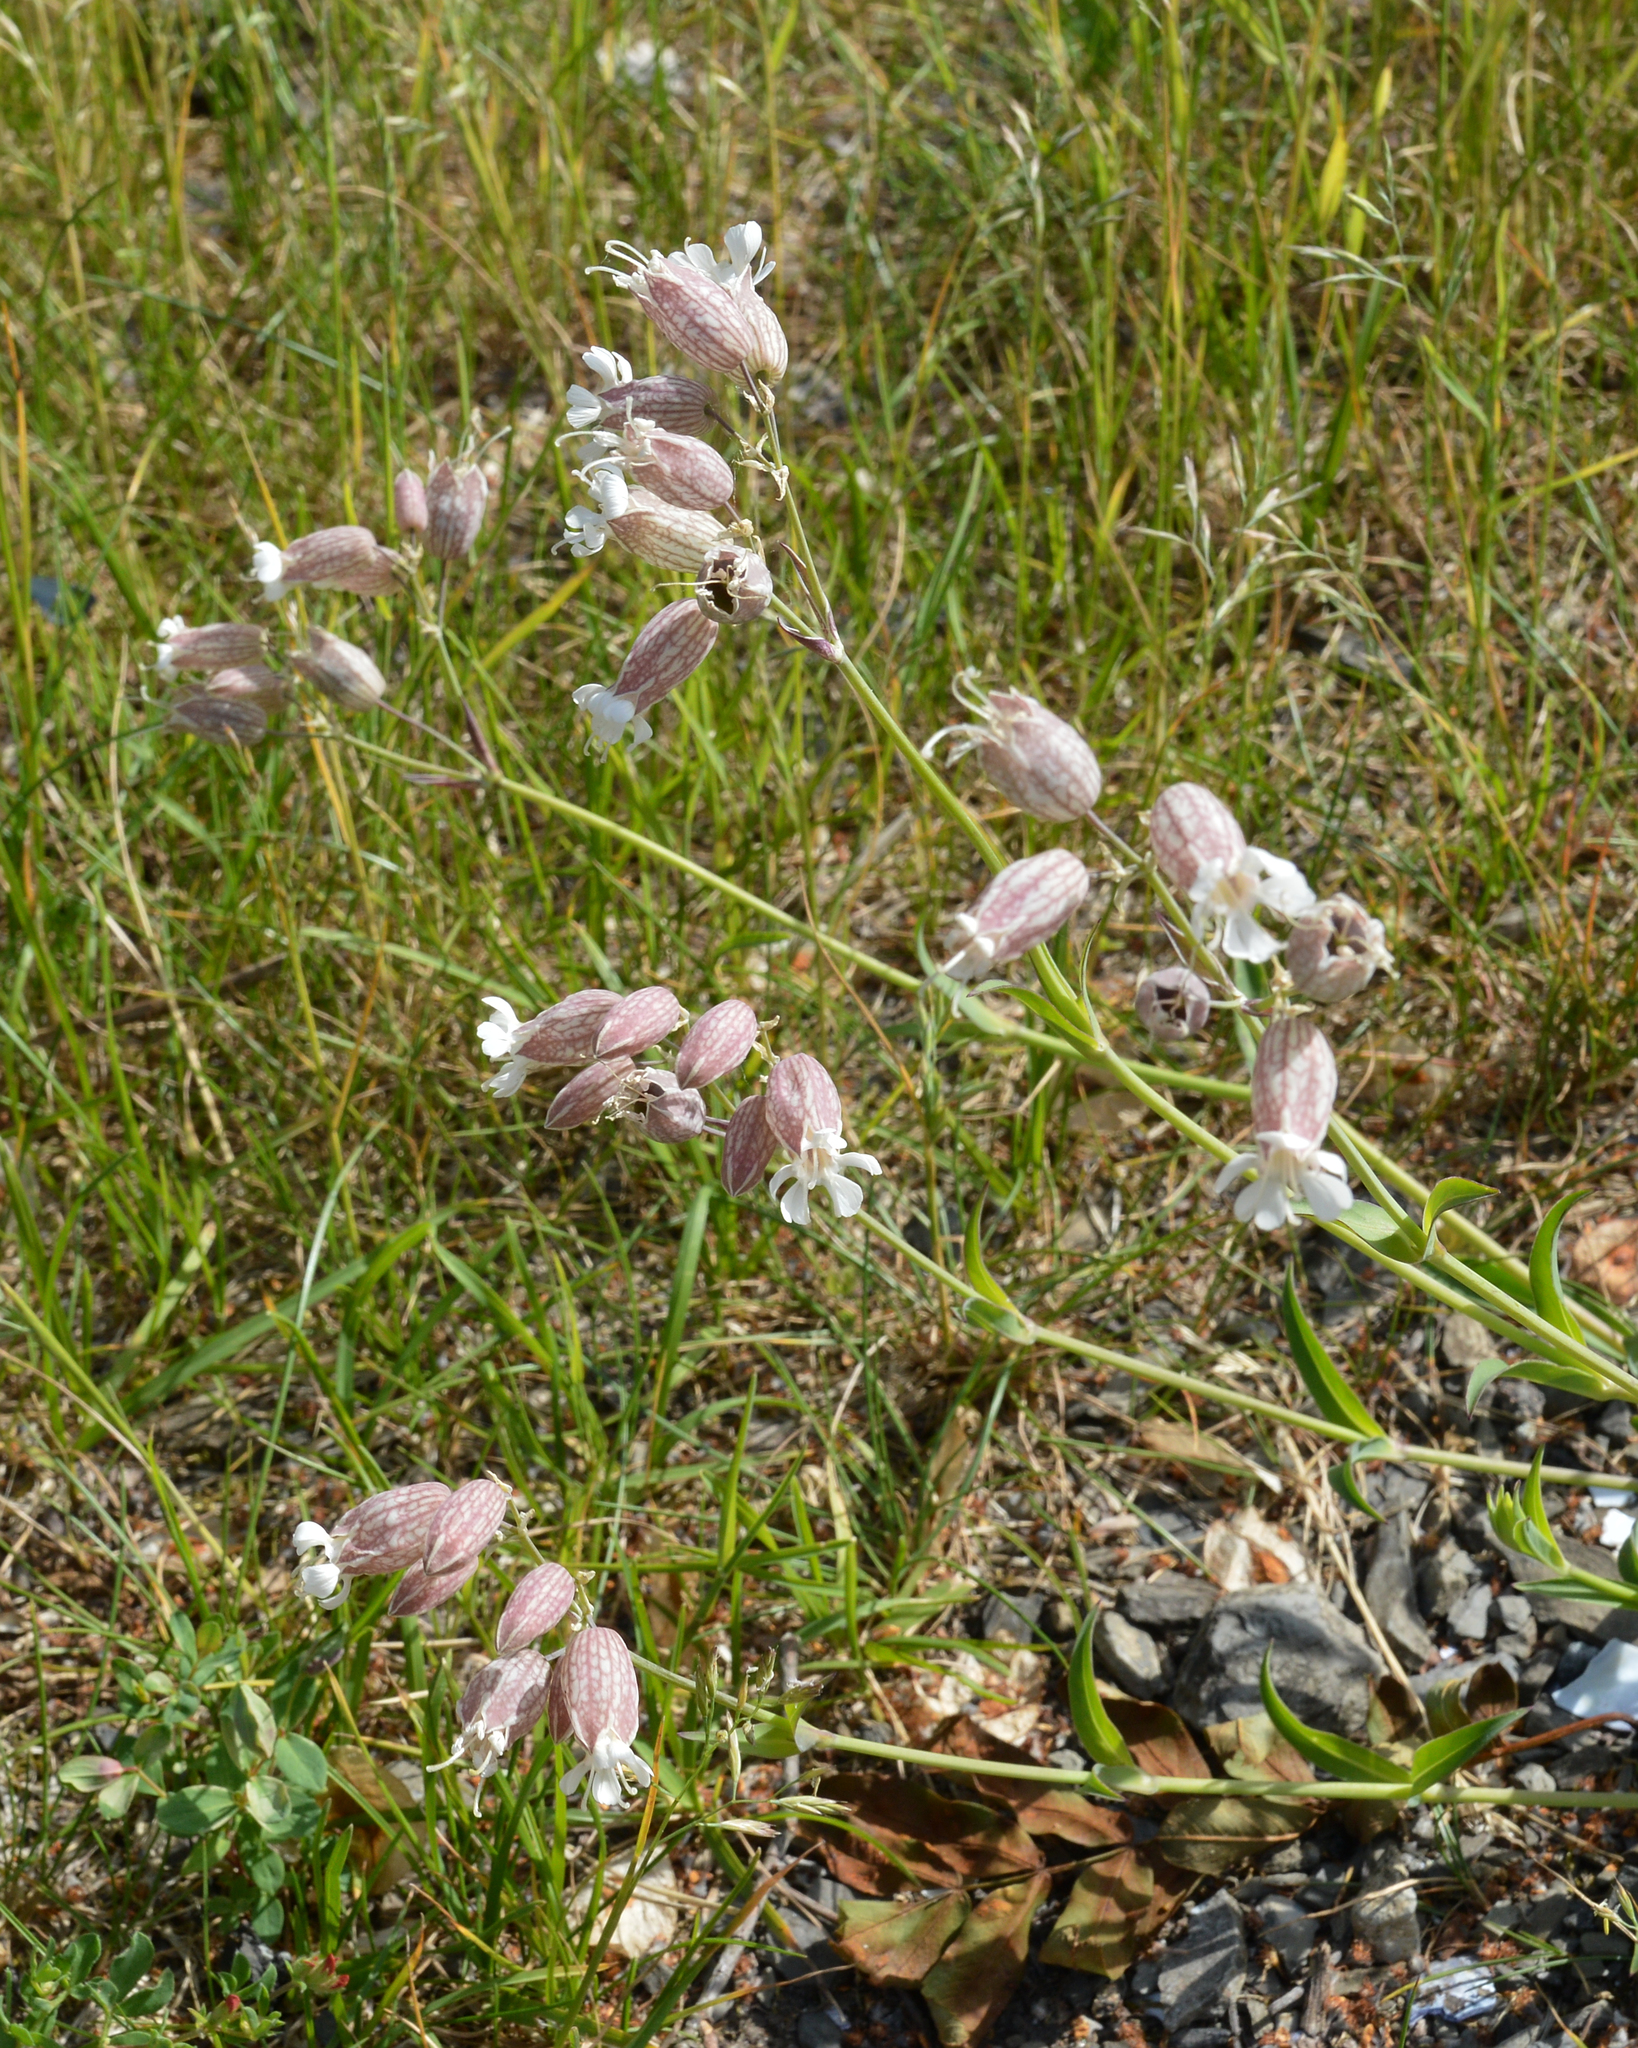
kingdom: Plantae
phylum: Tracheophyta
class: Magnoliopsida
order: Caryophyllales
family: Caryophyllaceae
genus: Silene
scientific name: Silene vulgaris
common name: Bladder campion
